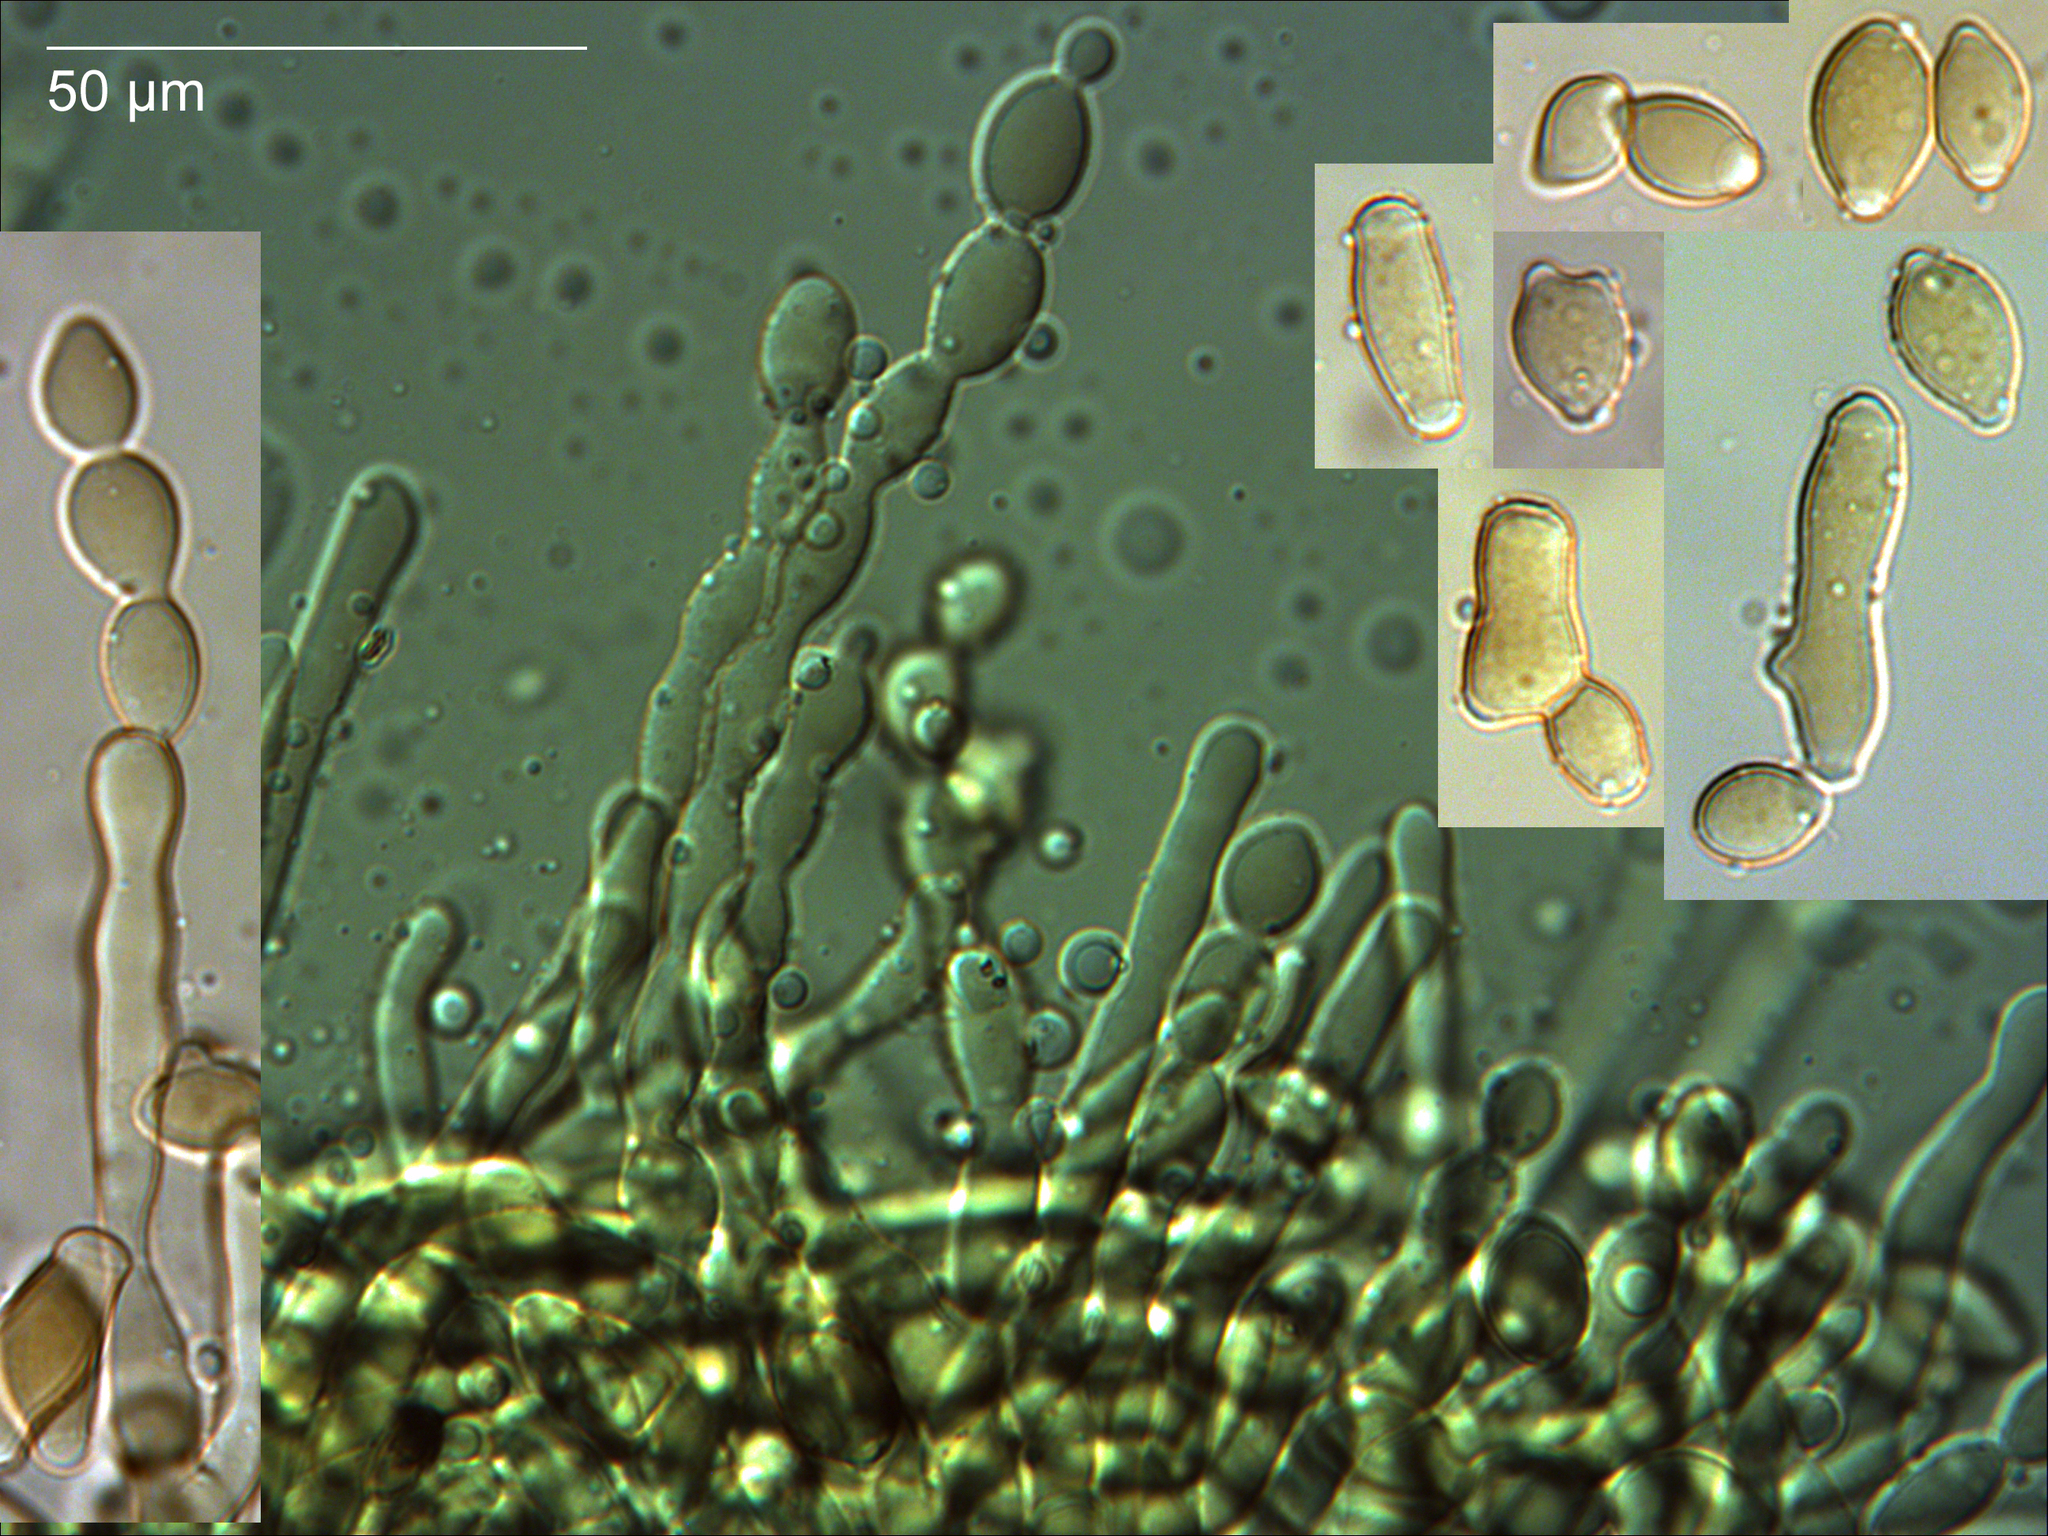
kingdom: Fungi
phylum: Ascomycota
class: Leotiomycetes
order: Helotiales
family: Sclerotiniaceae
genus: Monilinia
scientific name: Monilinia fructicola
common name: Brown fruit rot
